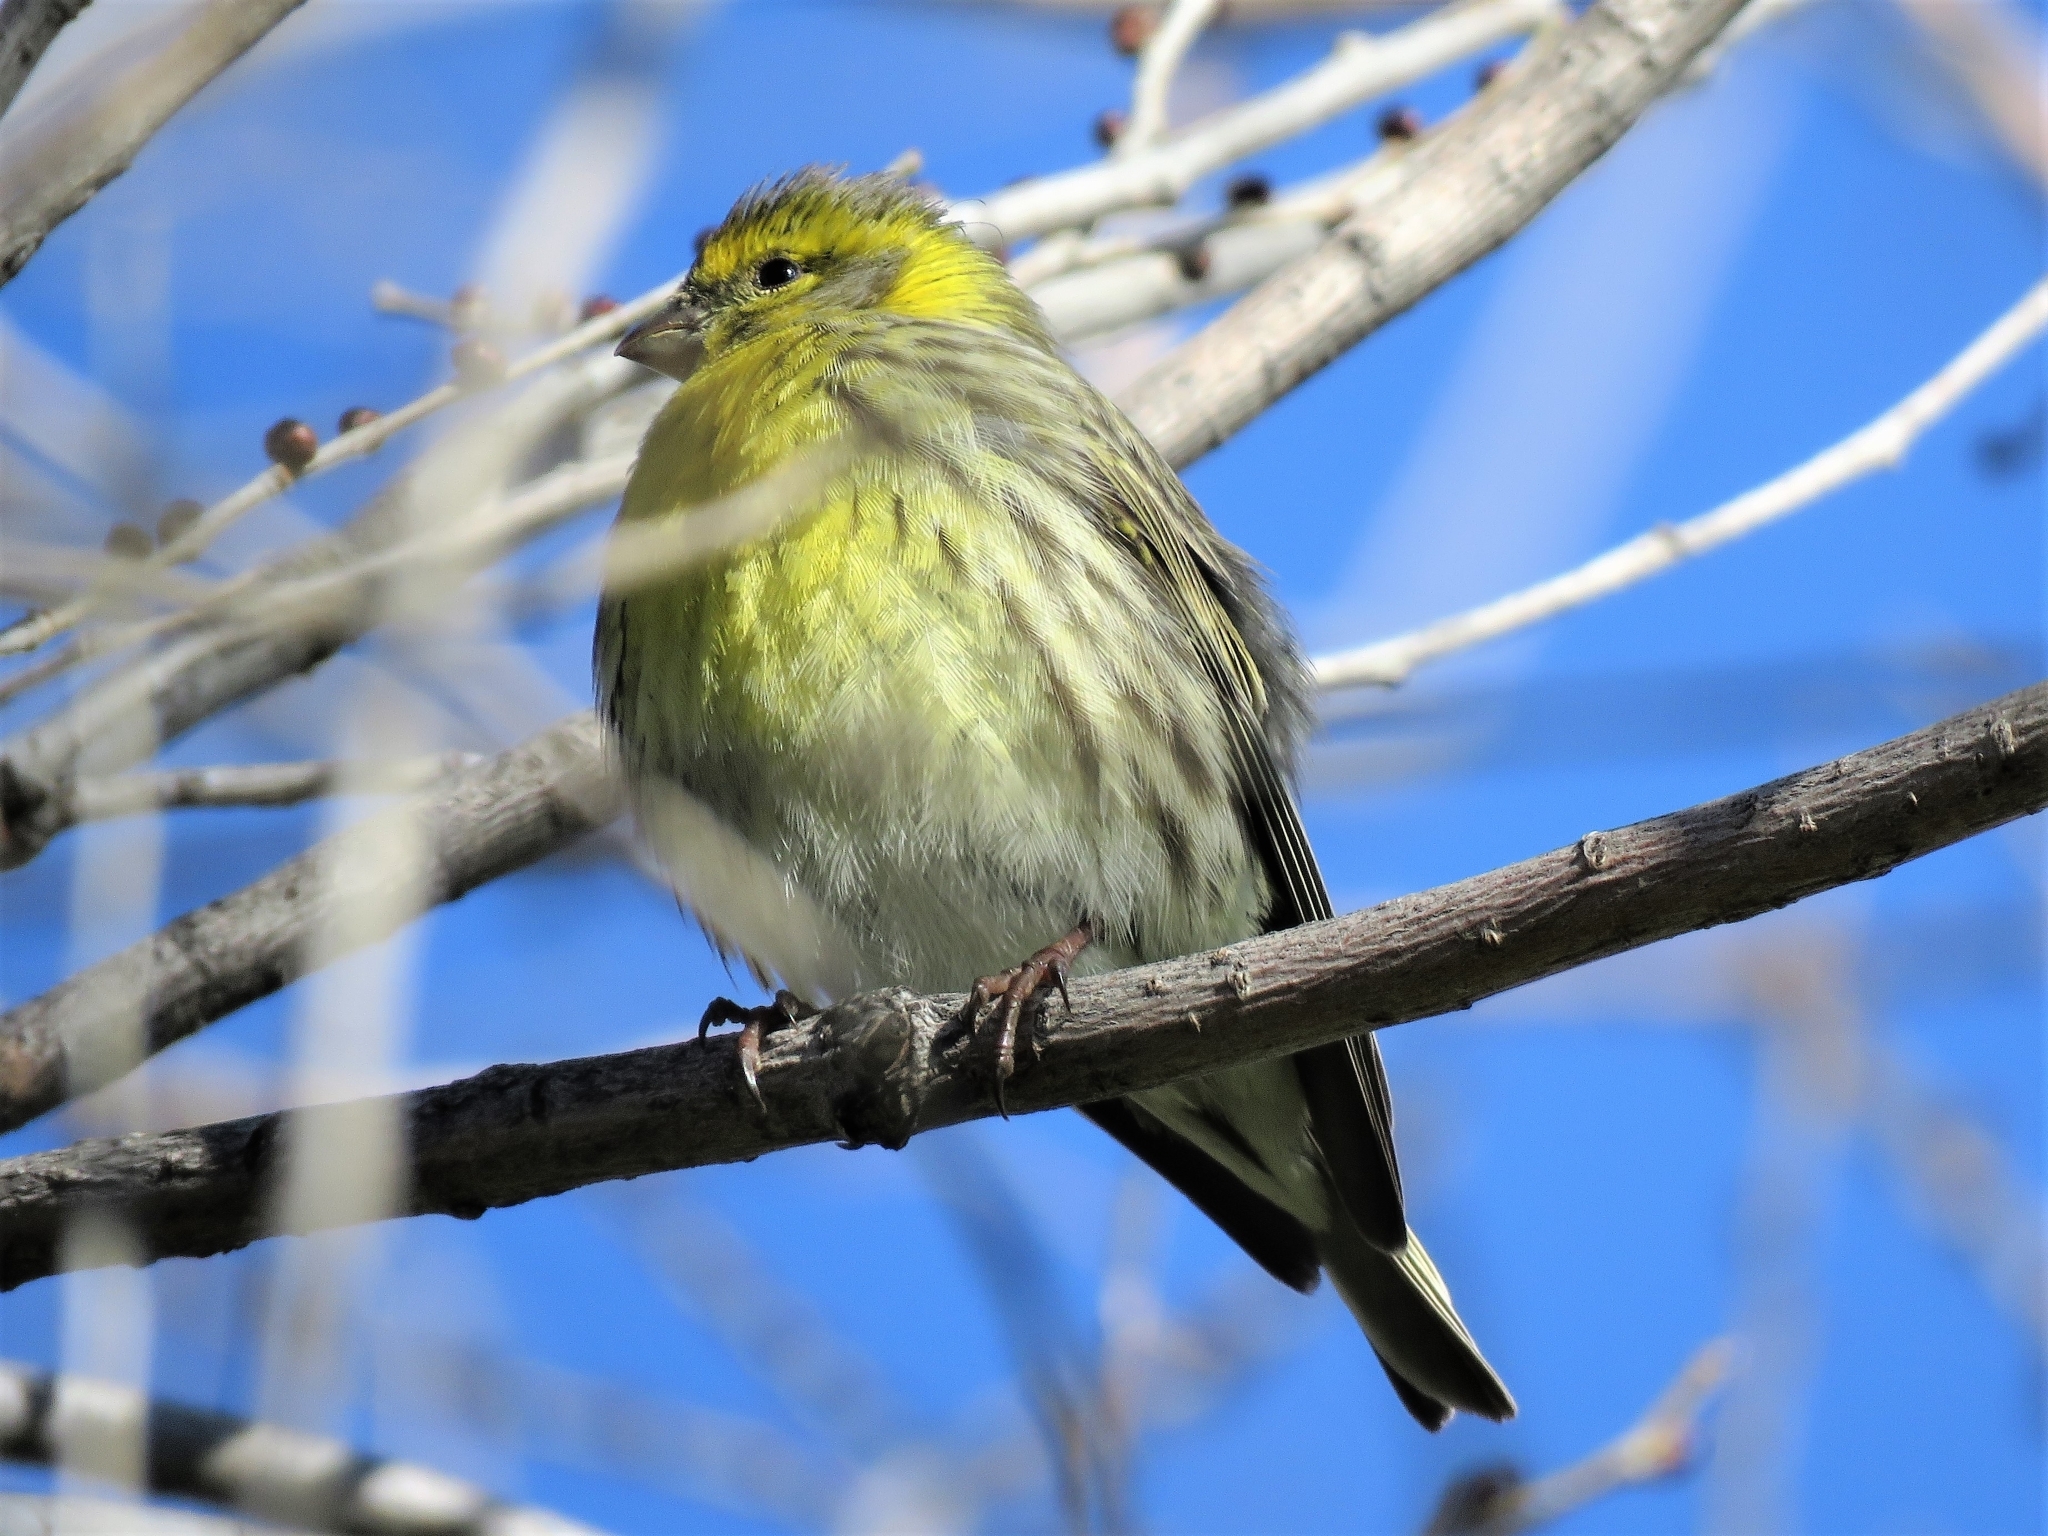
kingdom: Animalia
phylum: Chordata
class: Aves
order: Passeriformes
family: Fringillidae
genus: Serinus
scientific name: Serinus serinus
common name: European serin
